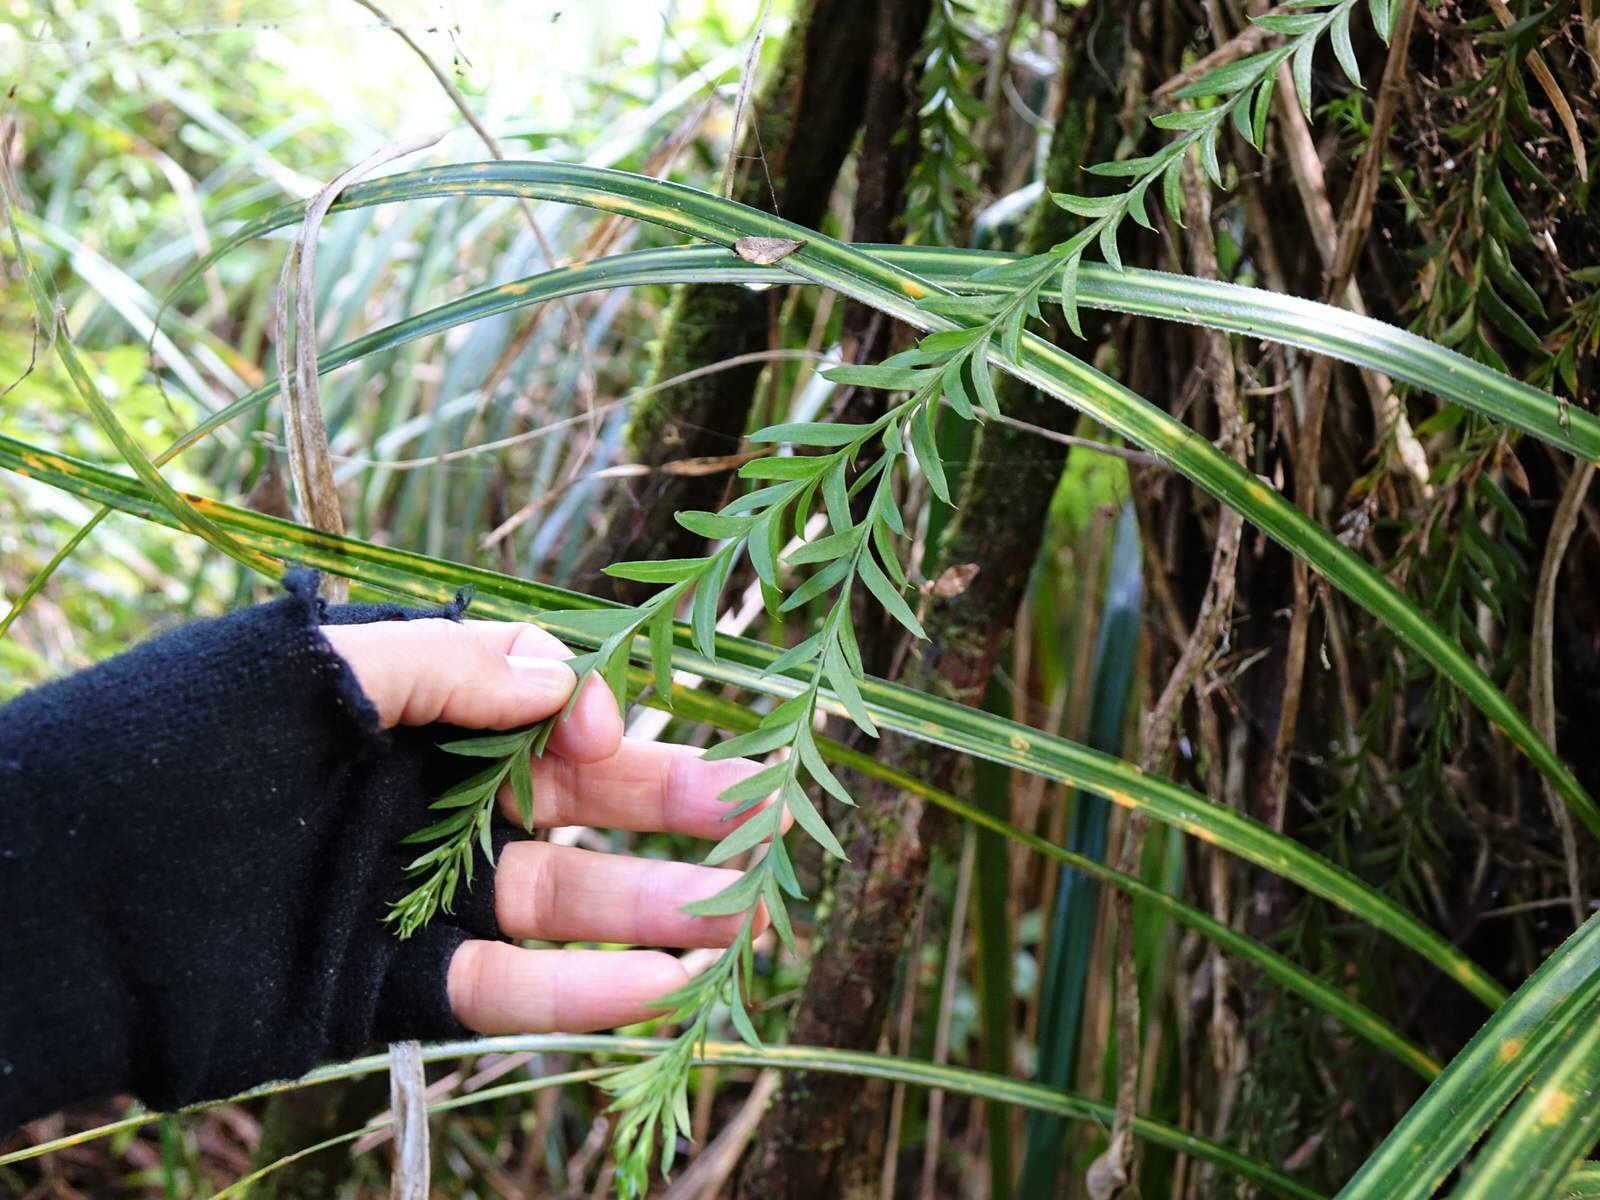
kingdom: Plantae
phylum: Tracheophyta
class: Polypodiopsida
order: Psilotales
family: Psilotaceae
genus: Tmesipteris
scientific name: Tmesipteris elongata
